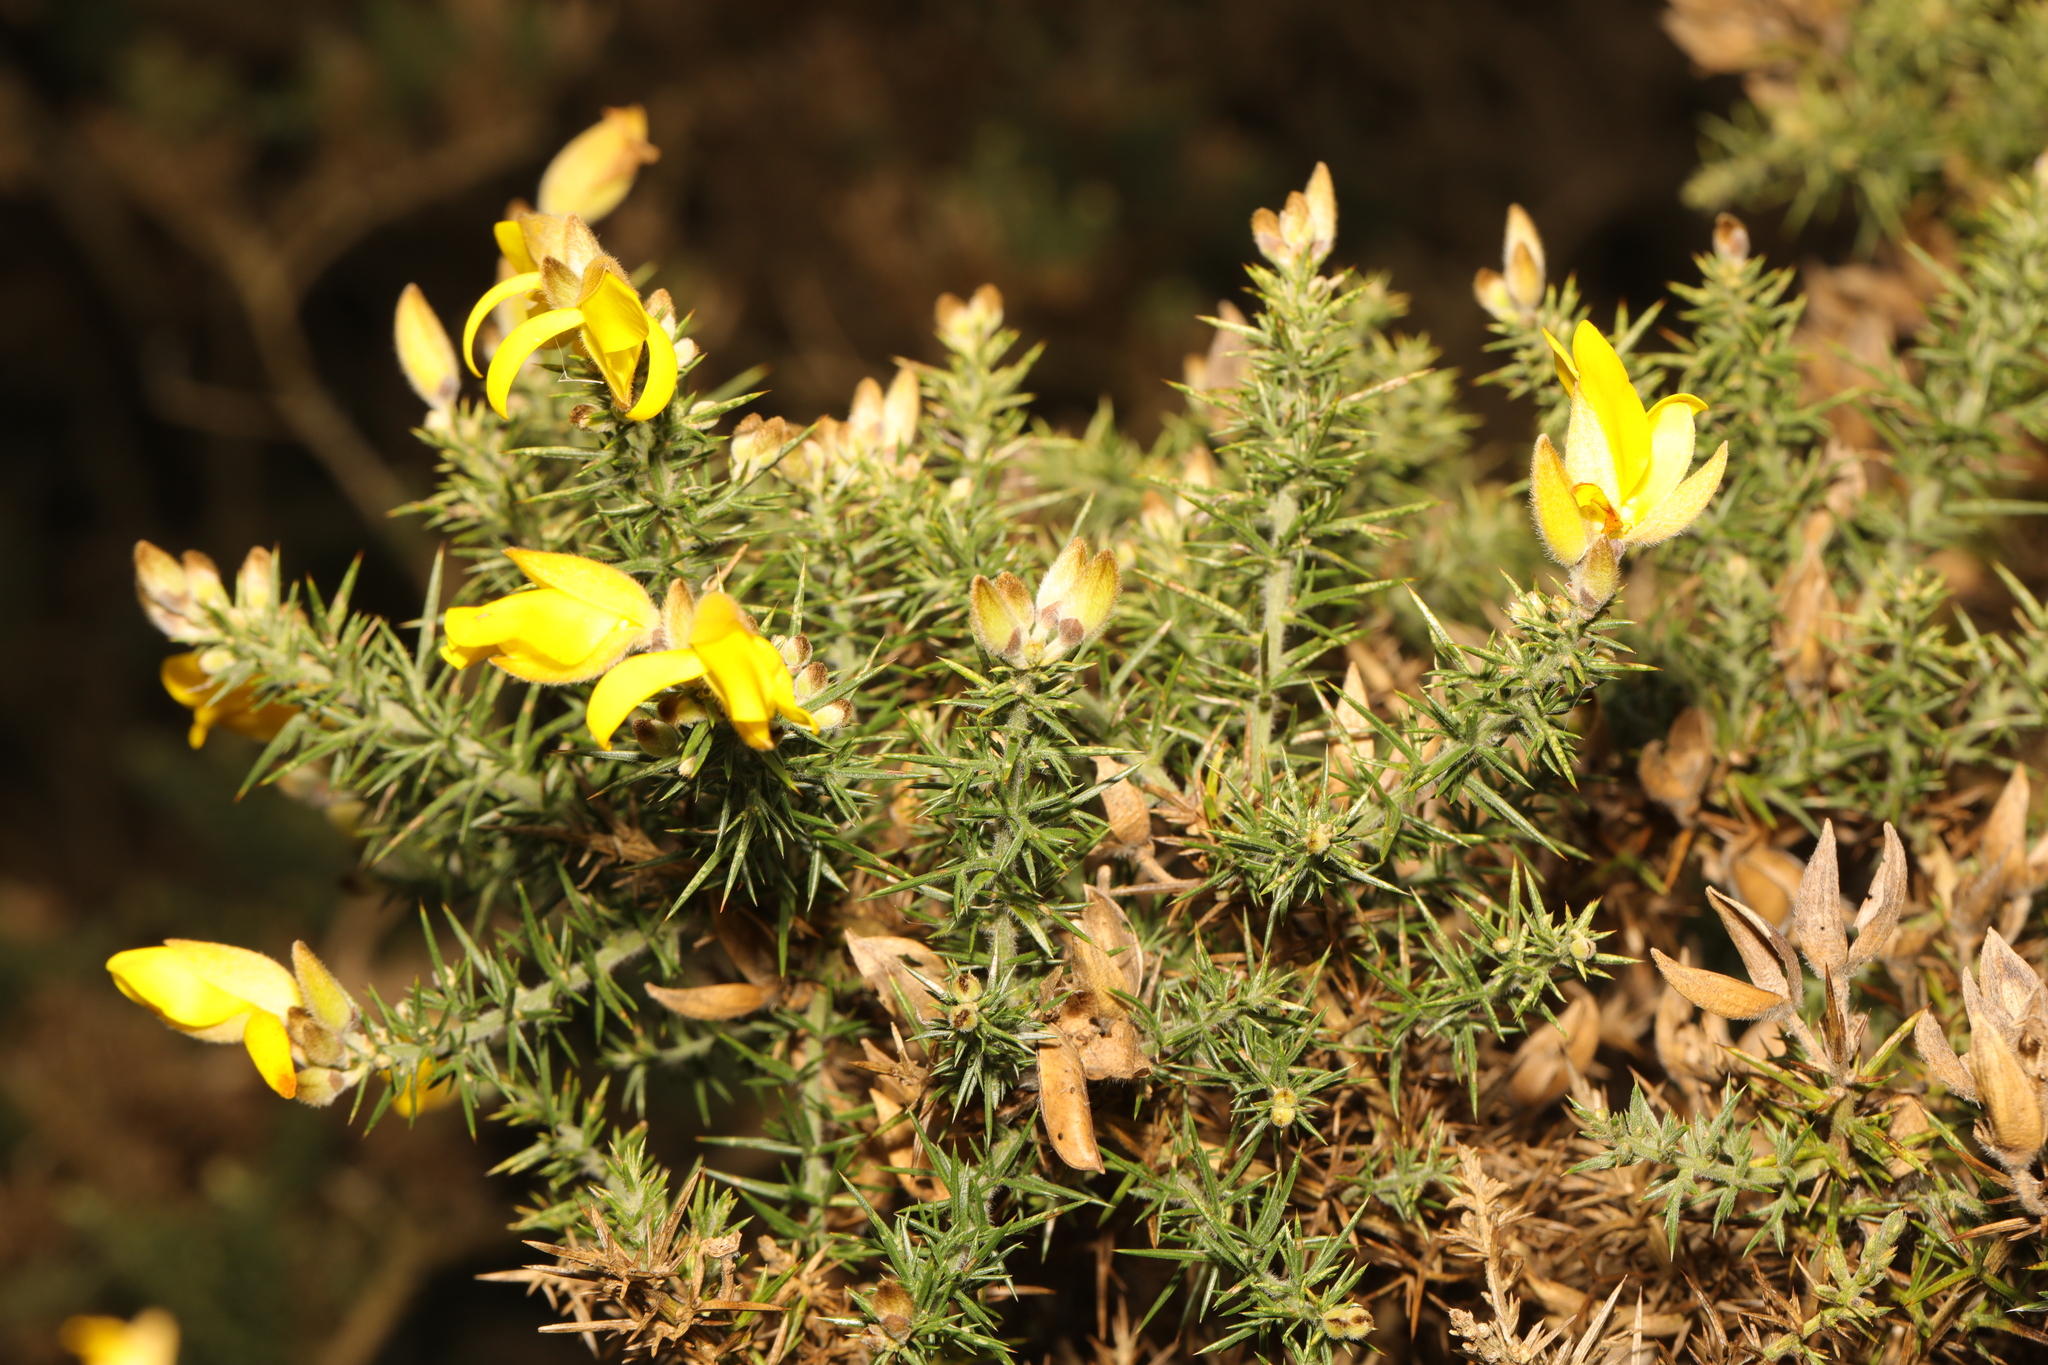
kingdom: Plantae
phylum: Tracheophyta
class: Magnoliopsida
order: Fabales
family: Fabaceae
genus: Ulex
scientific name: Ulex europaeus
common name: Common gorse
